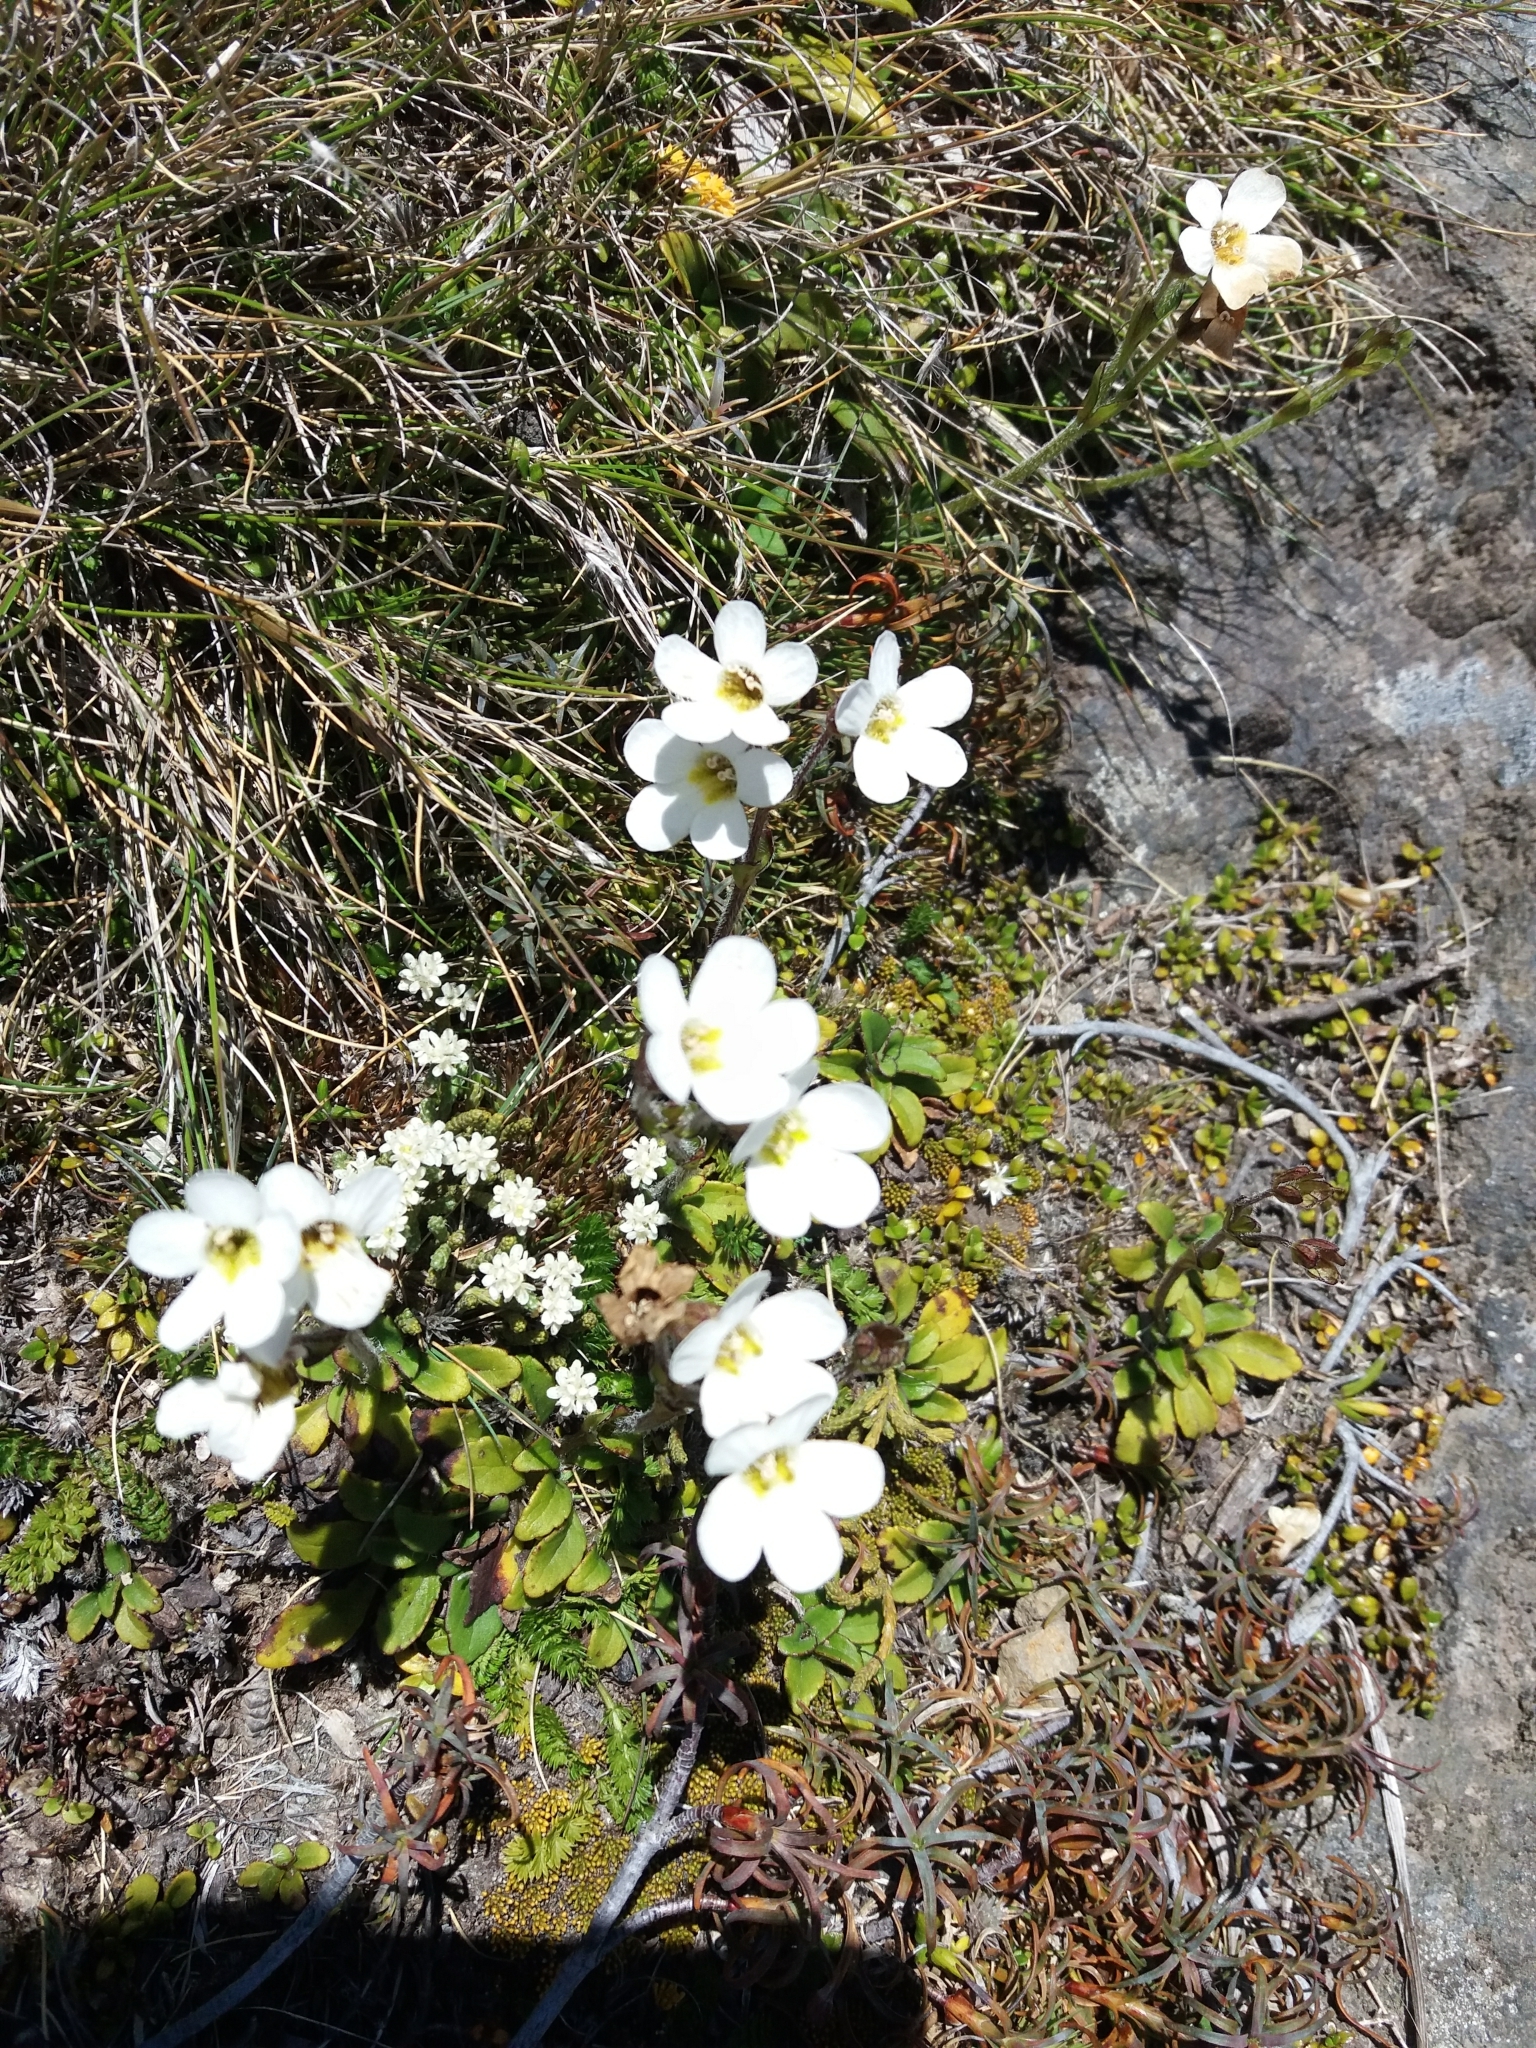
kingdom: Plantae
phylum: Tracheophyta
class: Magnoliopsida
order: Lamiales
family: Plantaginaceae
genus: Ourisia
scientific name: Ourisia vulcanica
